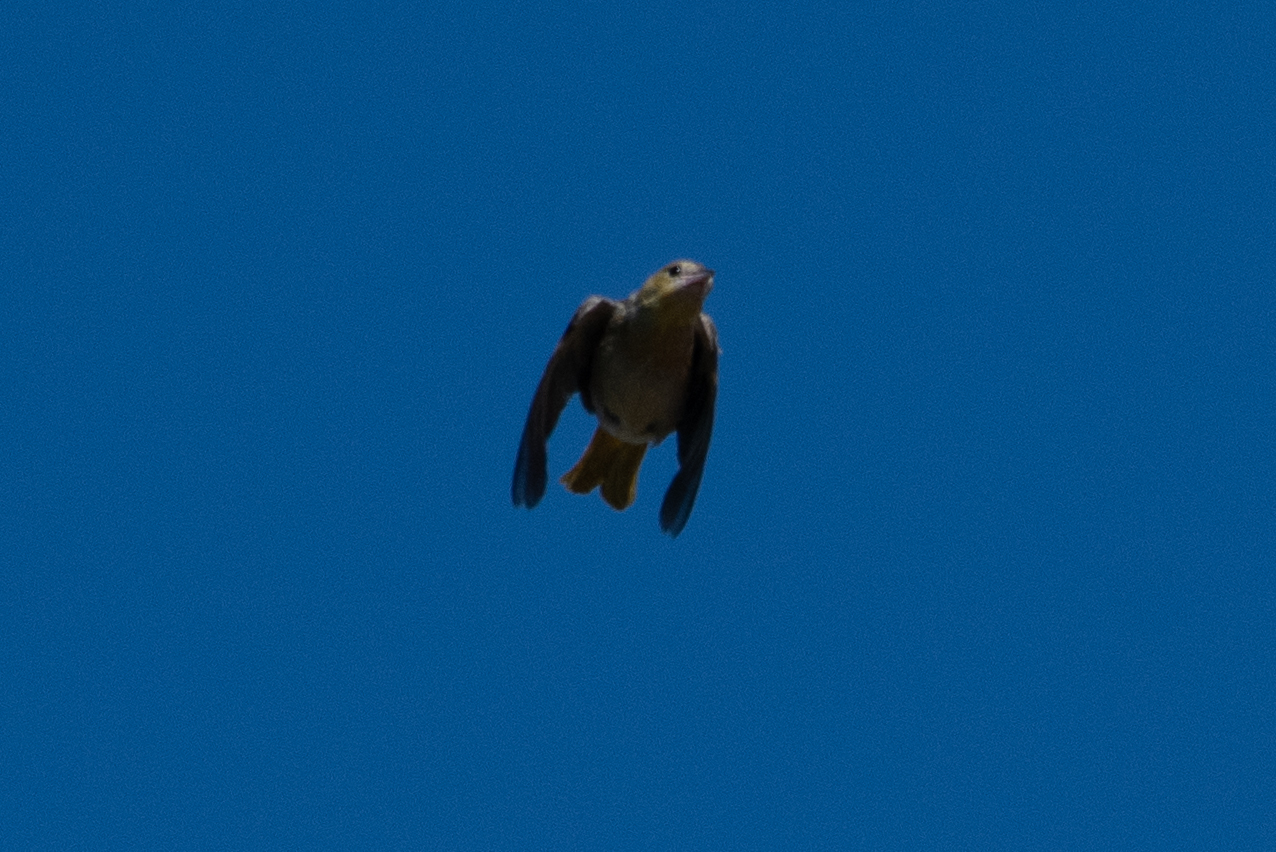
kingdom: Animalia
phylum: Chordata
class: Aves
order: Passeriformes
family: Icteridae
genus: Icterus
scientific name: Icterus cucullatus
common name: Hooded oriole
